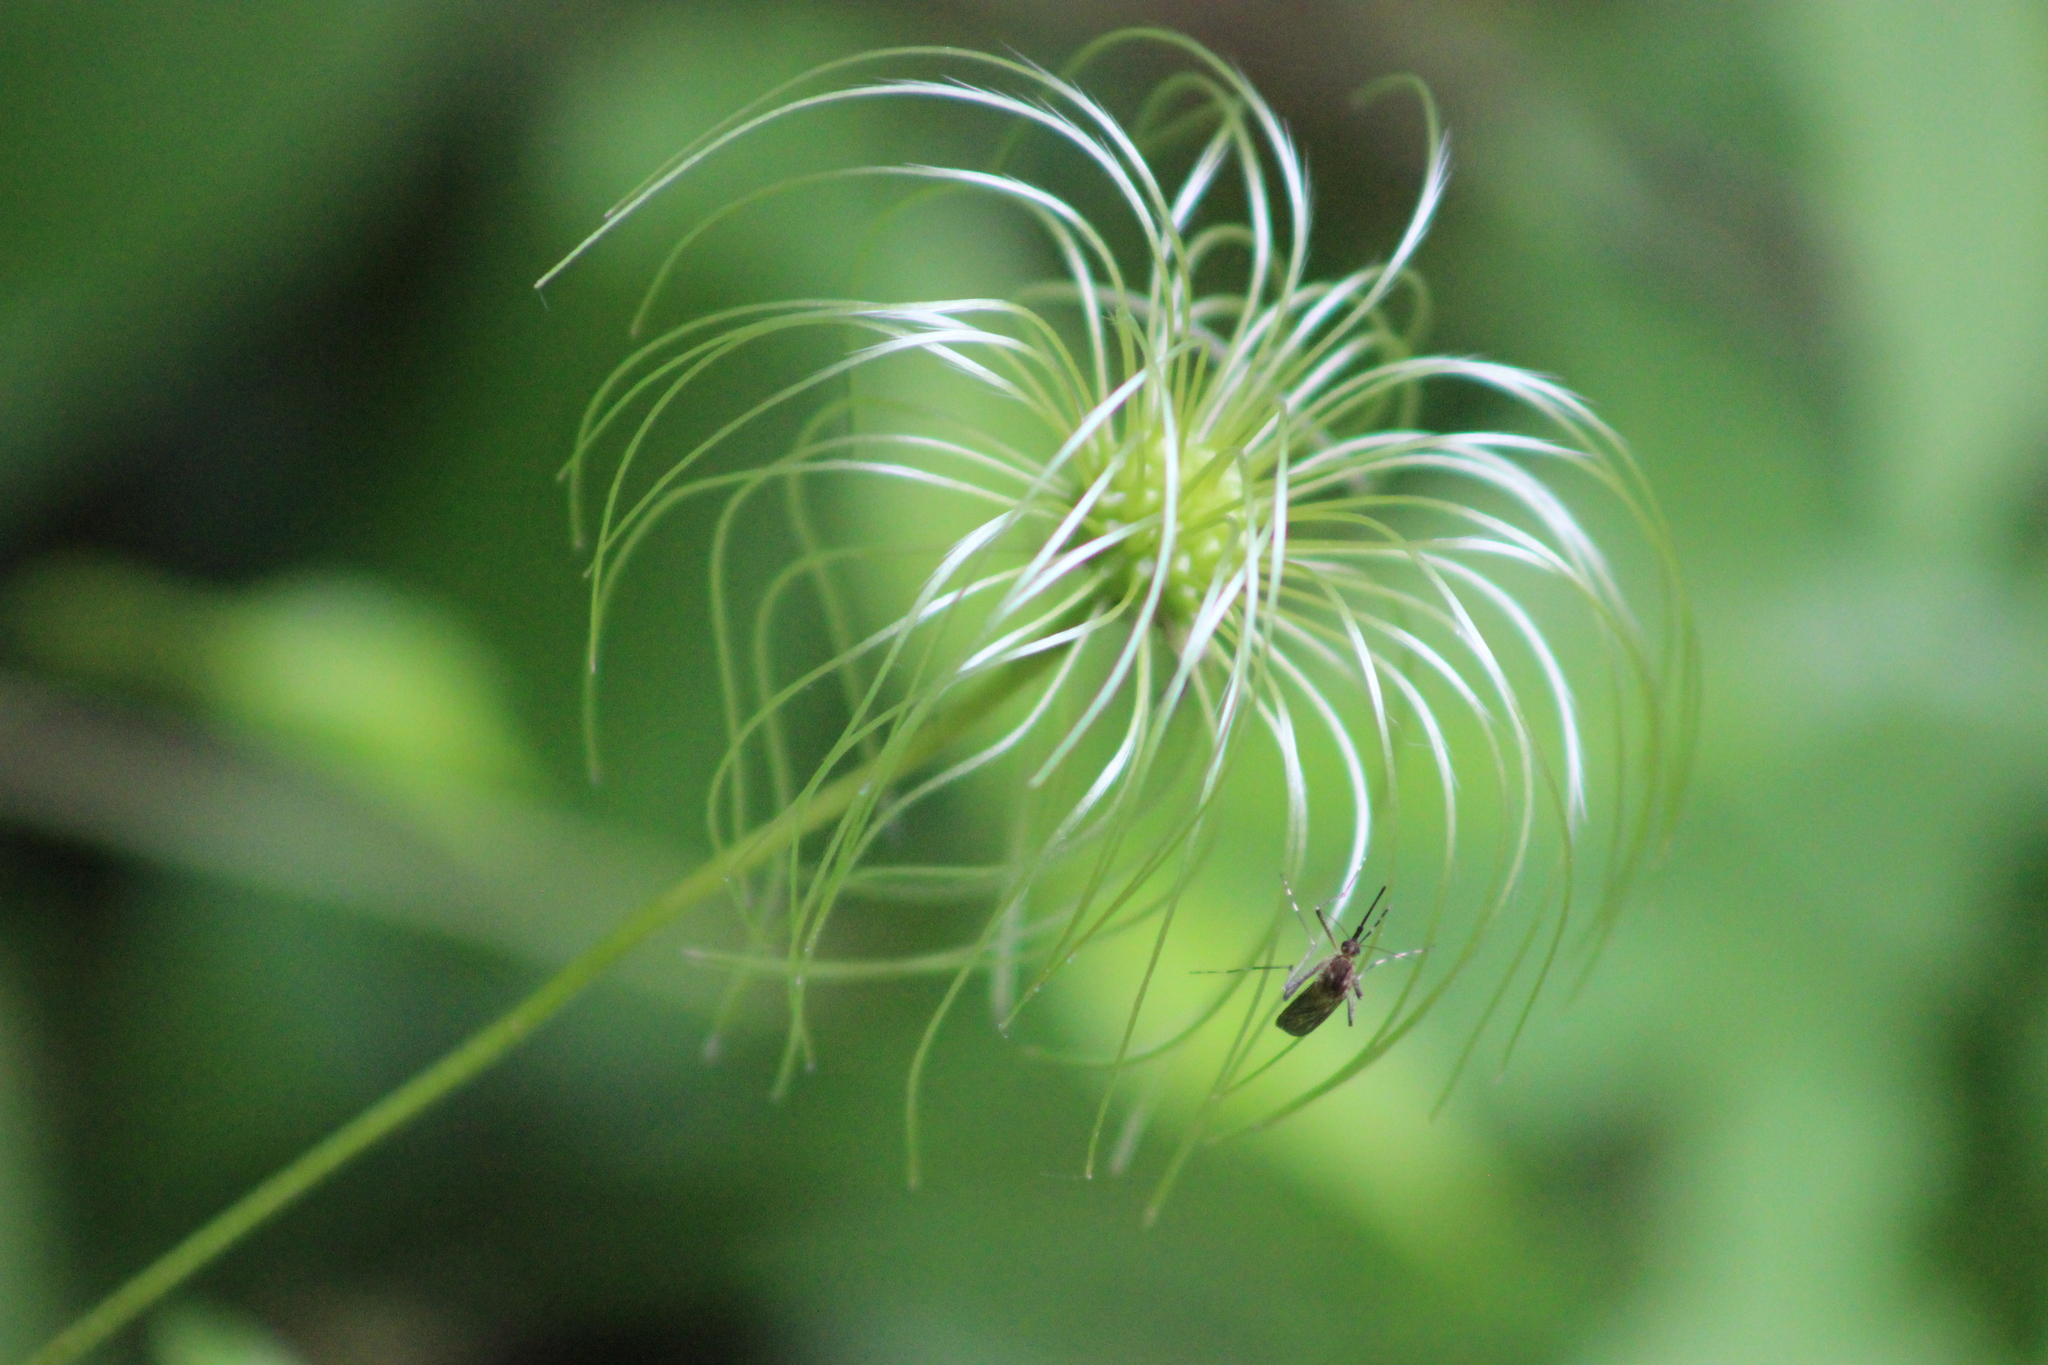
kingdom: Plantae
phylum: Tracheophyta
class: Magnoliopsida
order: Ranunculales
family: Ranunculaceae
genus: Clematis
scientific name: Clematis sibirica
